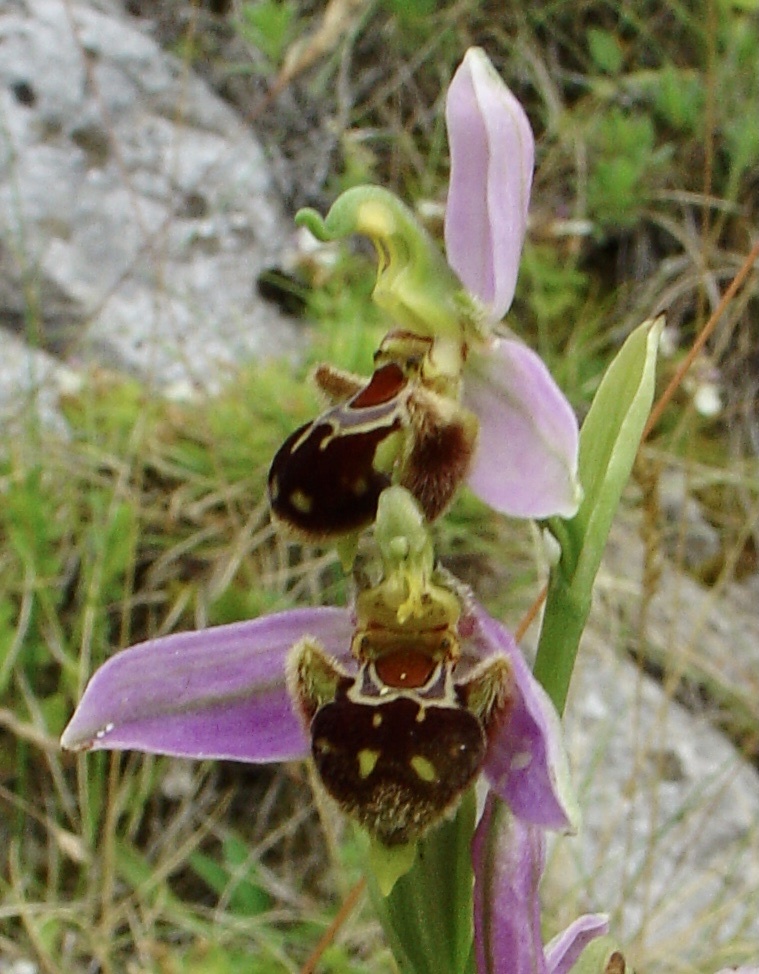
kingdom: Plantae
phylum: Tracheophyta
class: Liliopsida
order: Asparagales
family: Orchidaceae
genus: Ophrys
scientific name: Ophrys apifera
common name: Bee orchid
